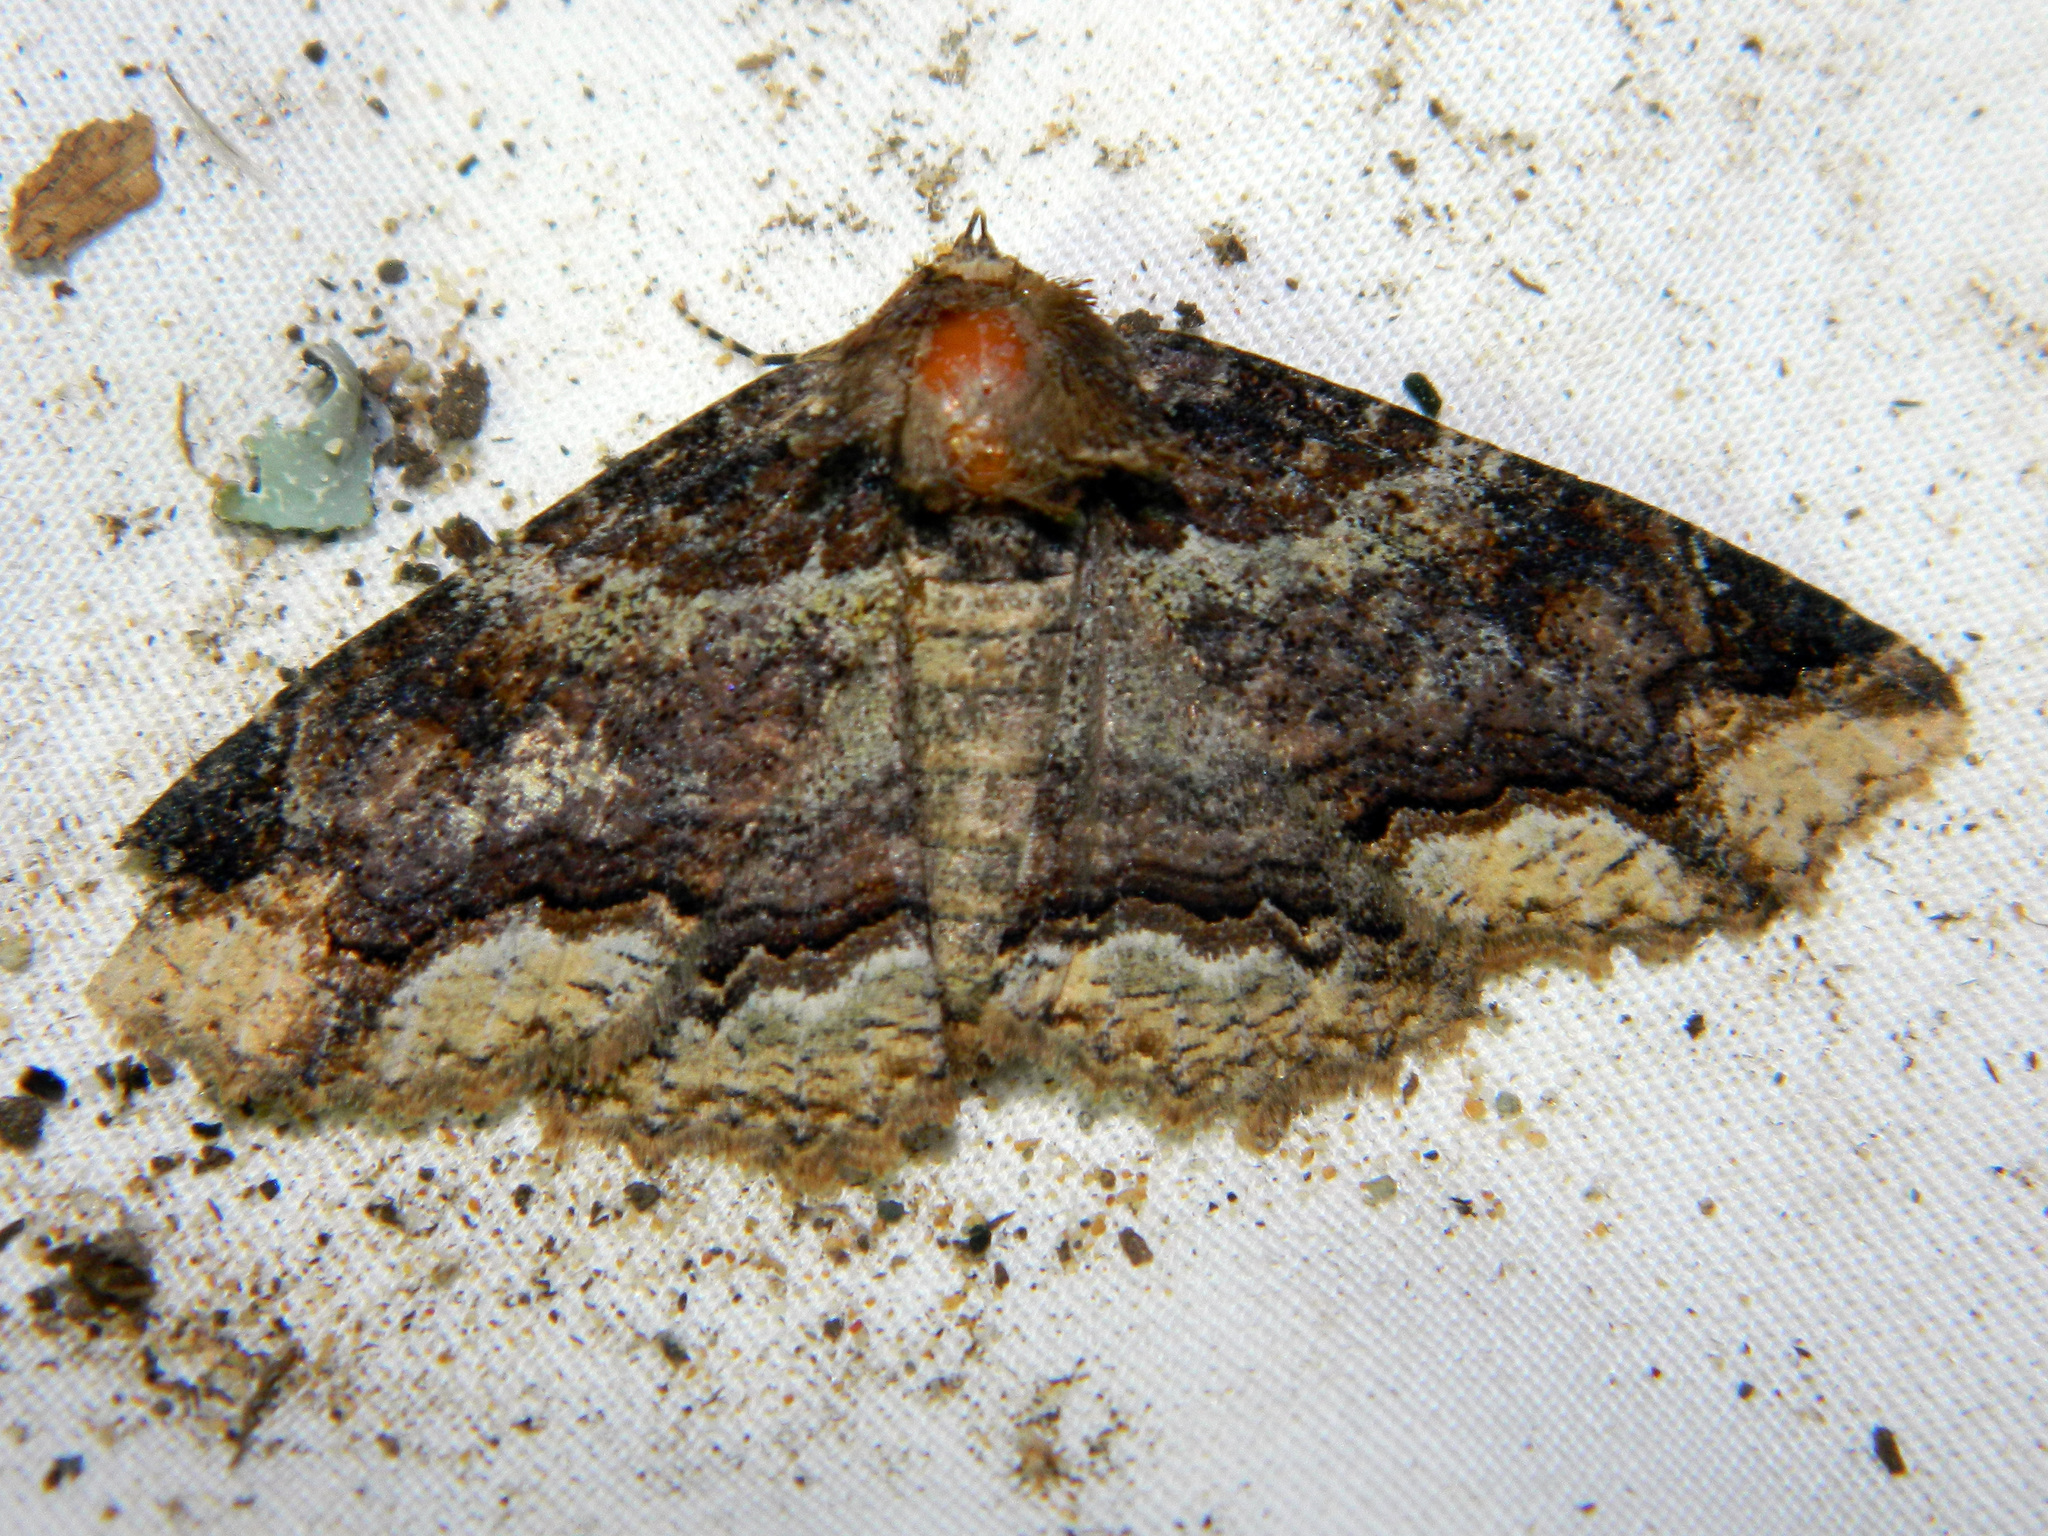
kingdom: Animalia
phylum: Arthropoda
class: Insecta
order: Lepidoptera
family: Erebidae
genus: Zale
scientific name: Zale minerea
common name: Colorful zale moth
